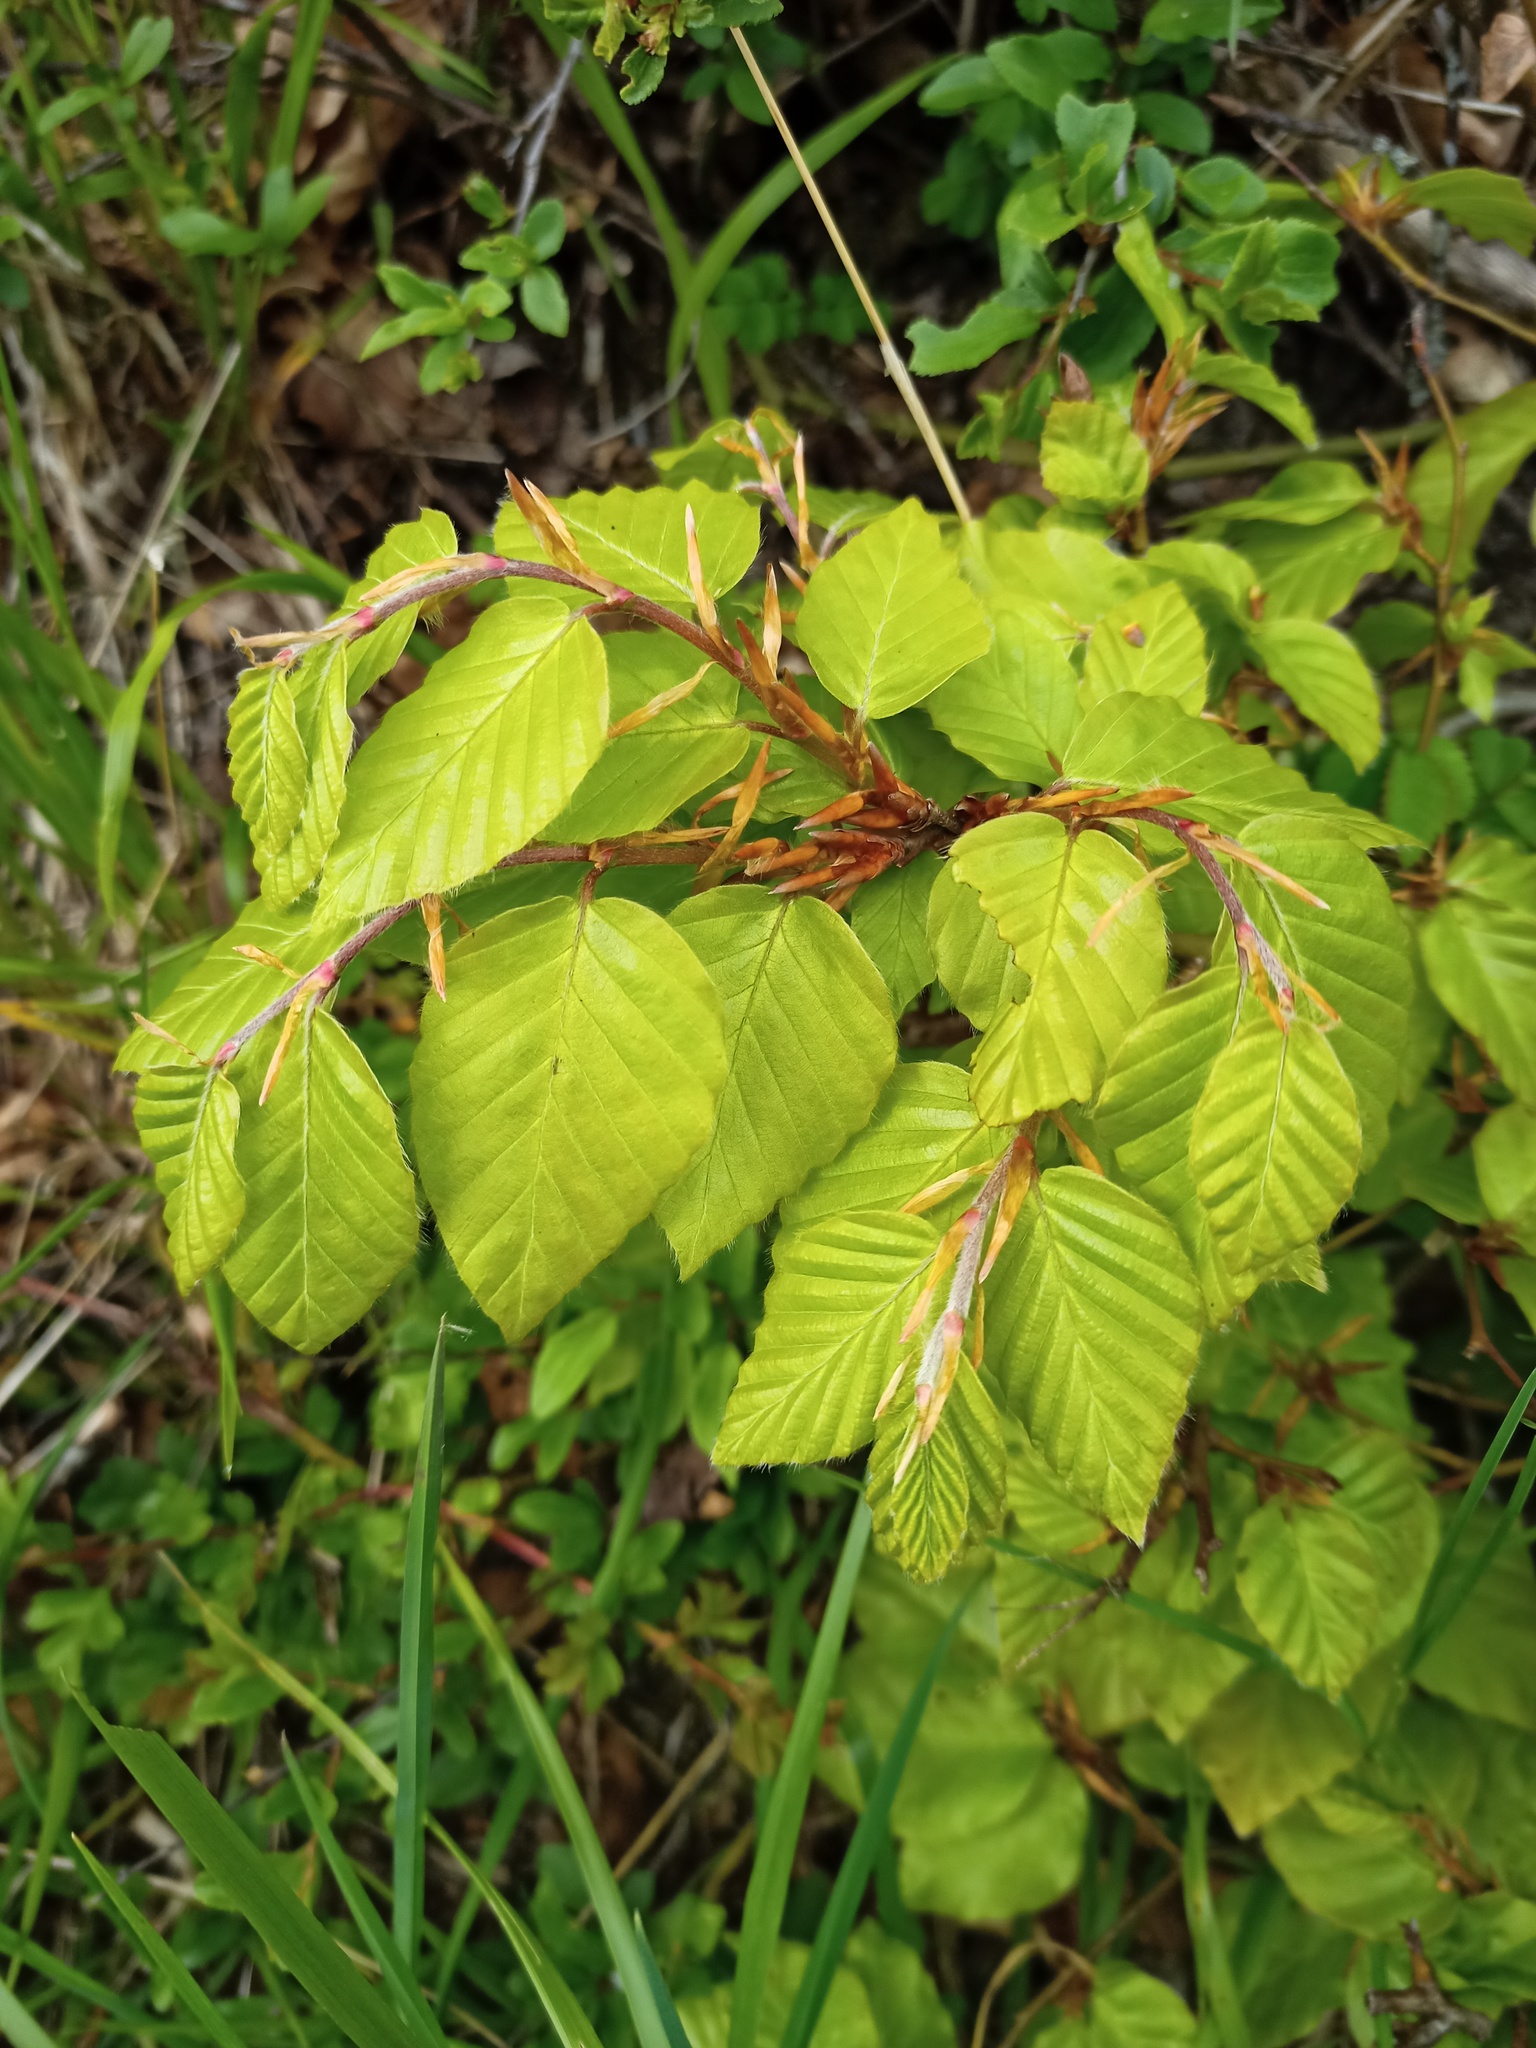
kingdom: Plantae
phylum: Tracheophyta
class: Magnoliopsida
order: Fagales
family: Fagaceae
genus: Fagus
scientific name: Fagus sylvatica
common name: Beech
